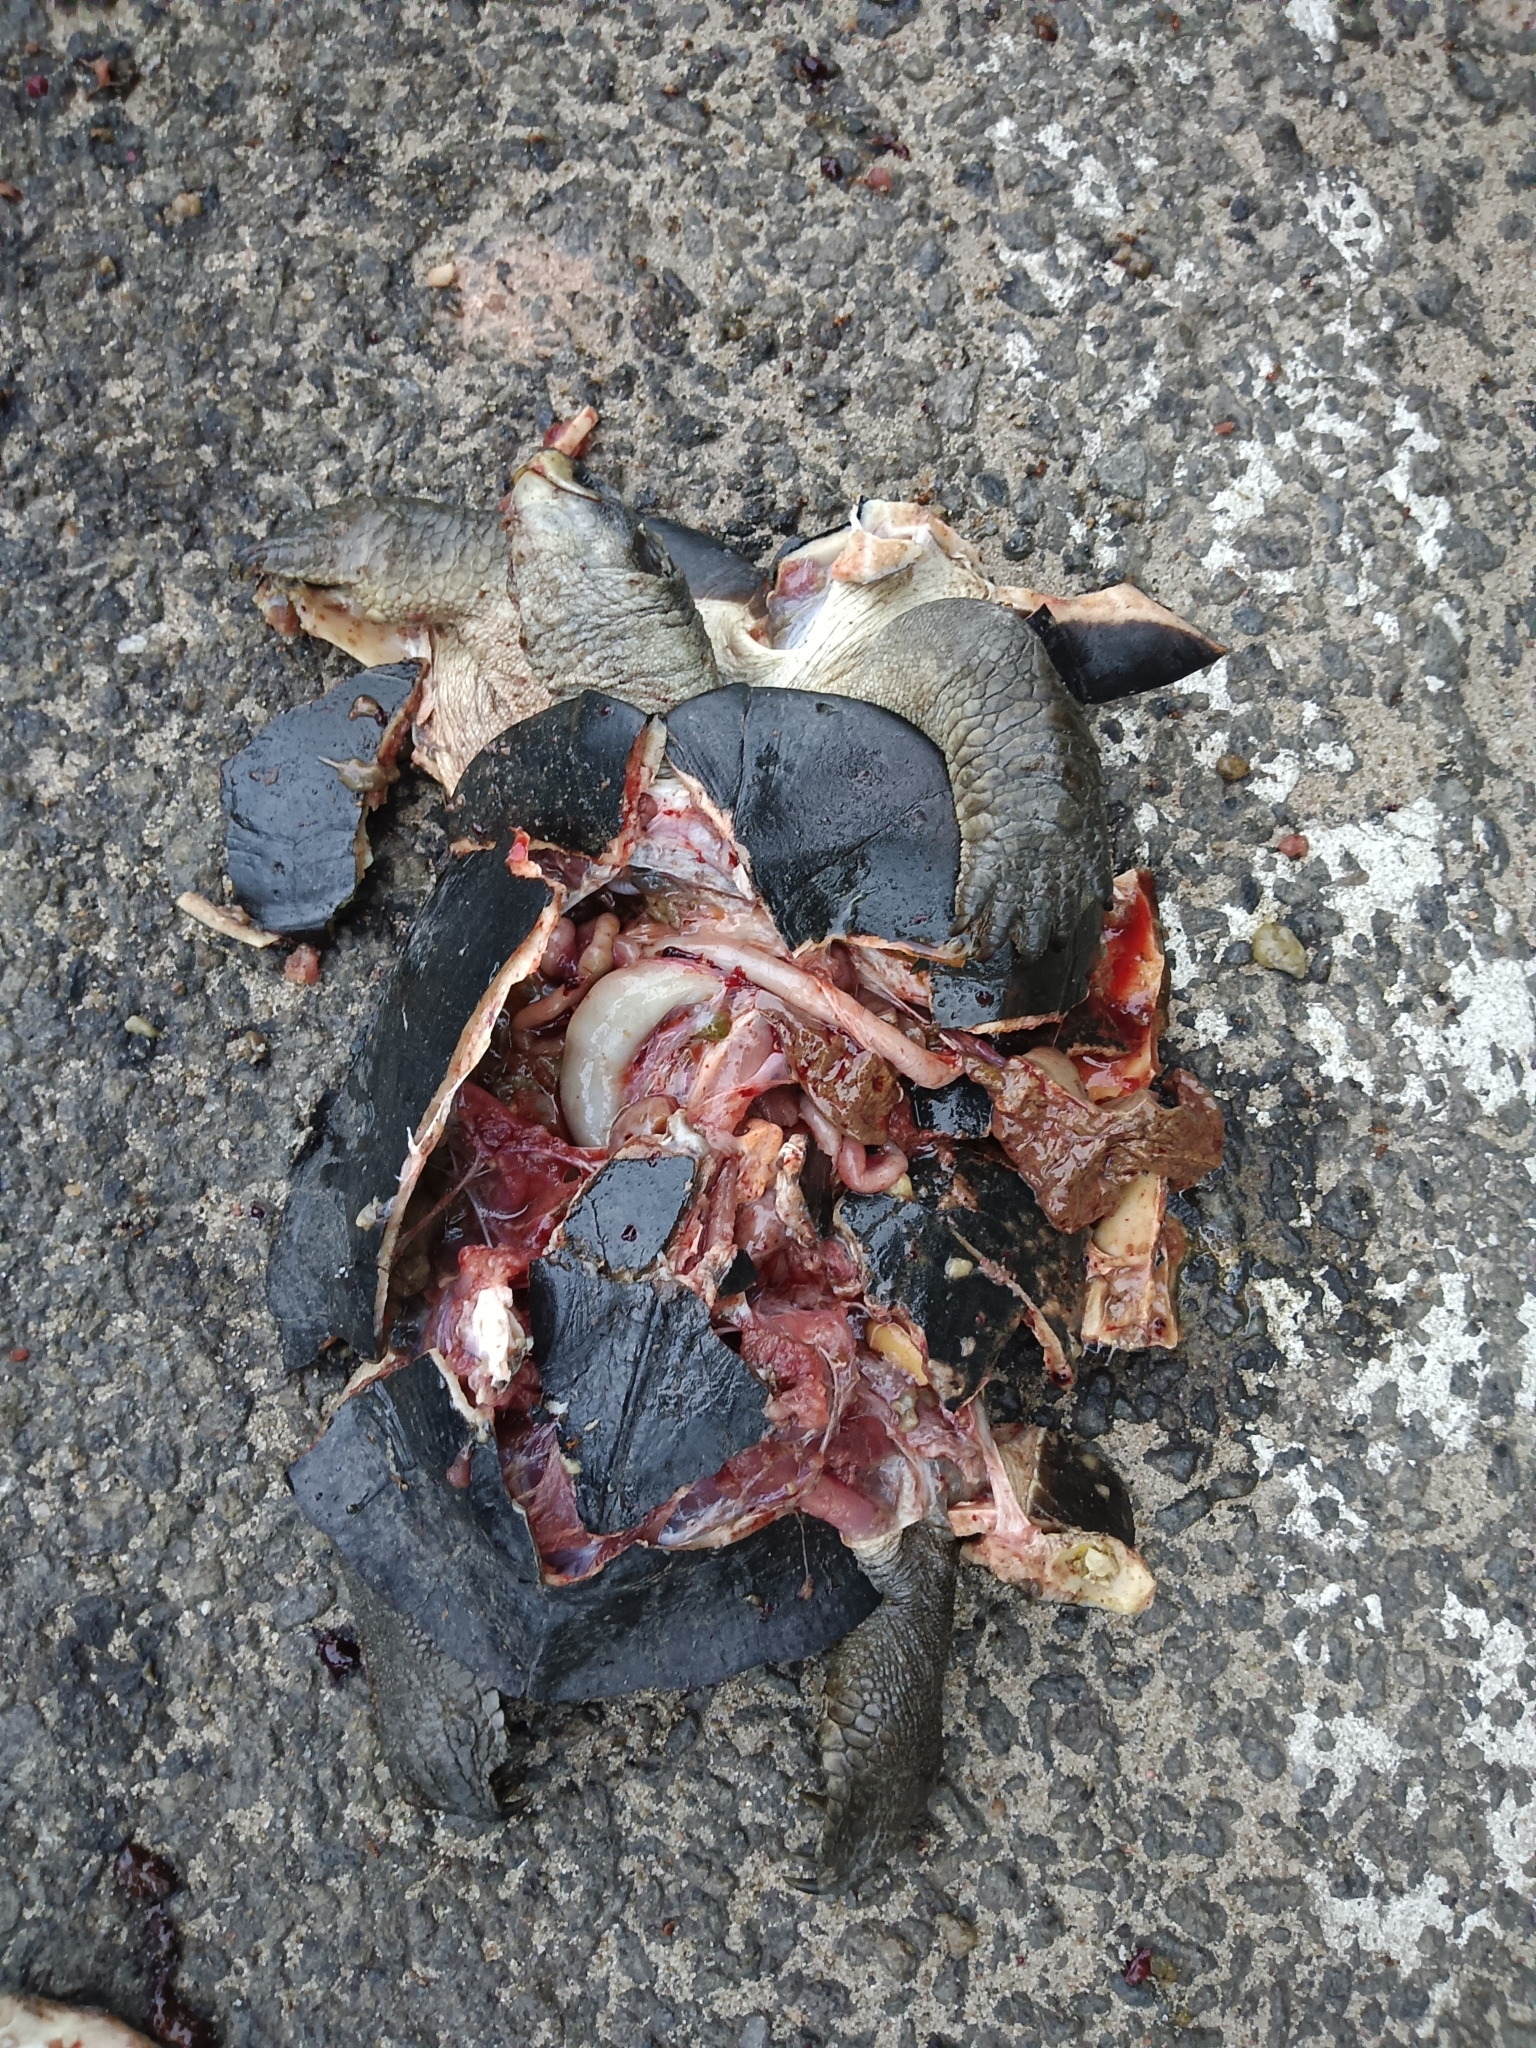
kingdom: Animalia
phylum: Chordata
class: Testudines
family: Geoemydidae
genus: Melanochelys
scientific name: Melanochelys trijuga
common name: Indian black turtle
